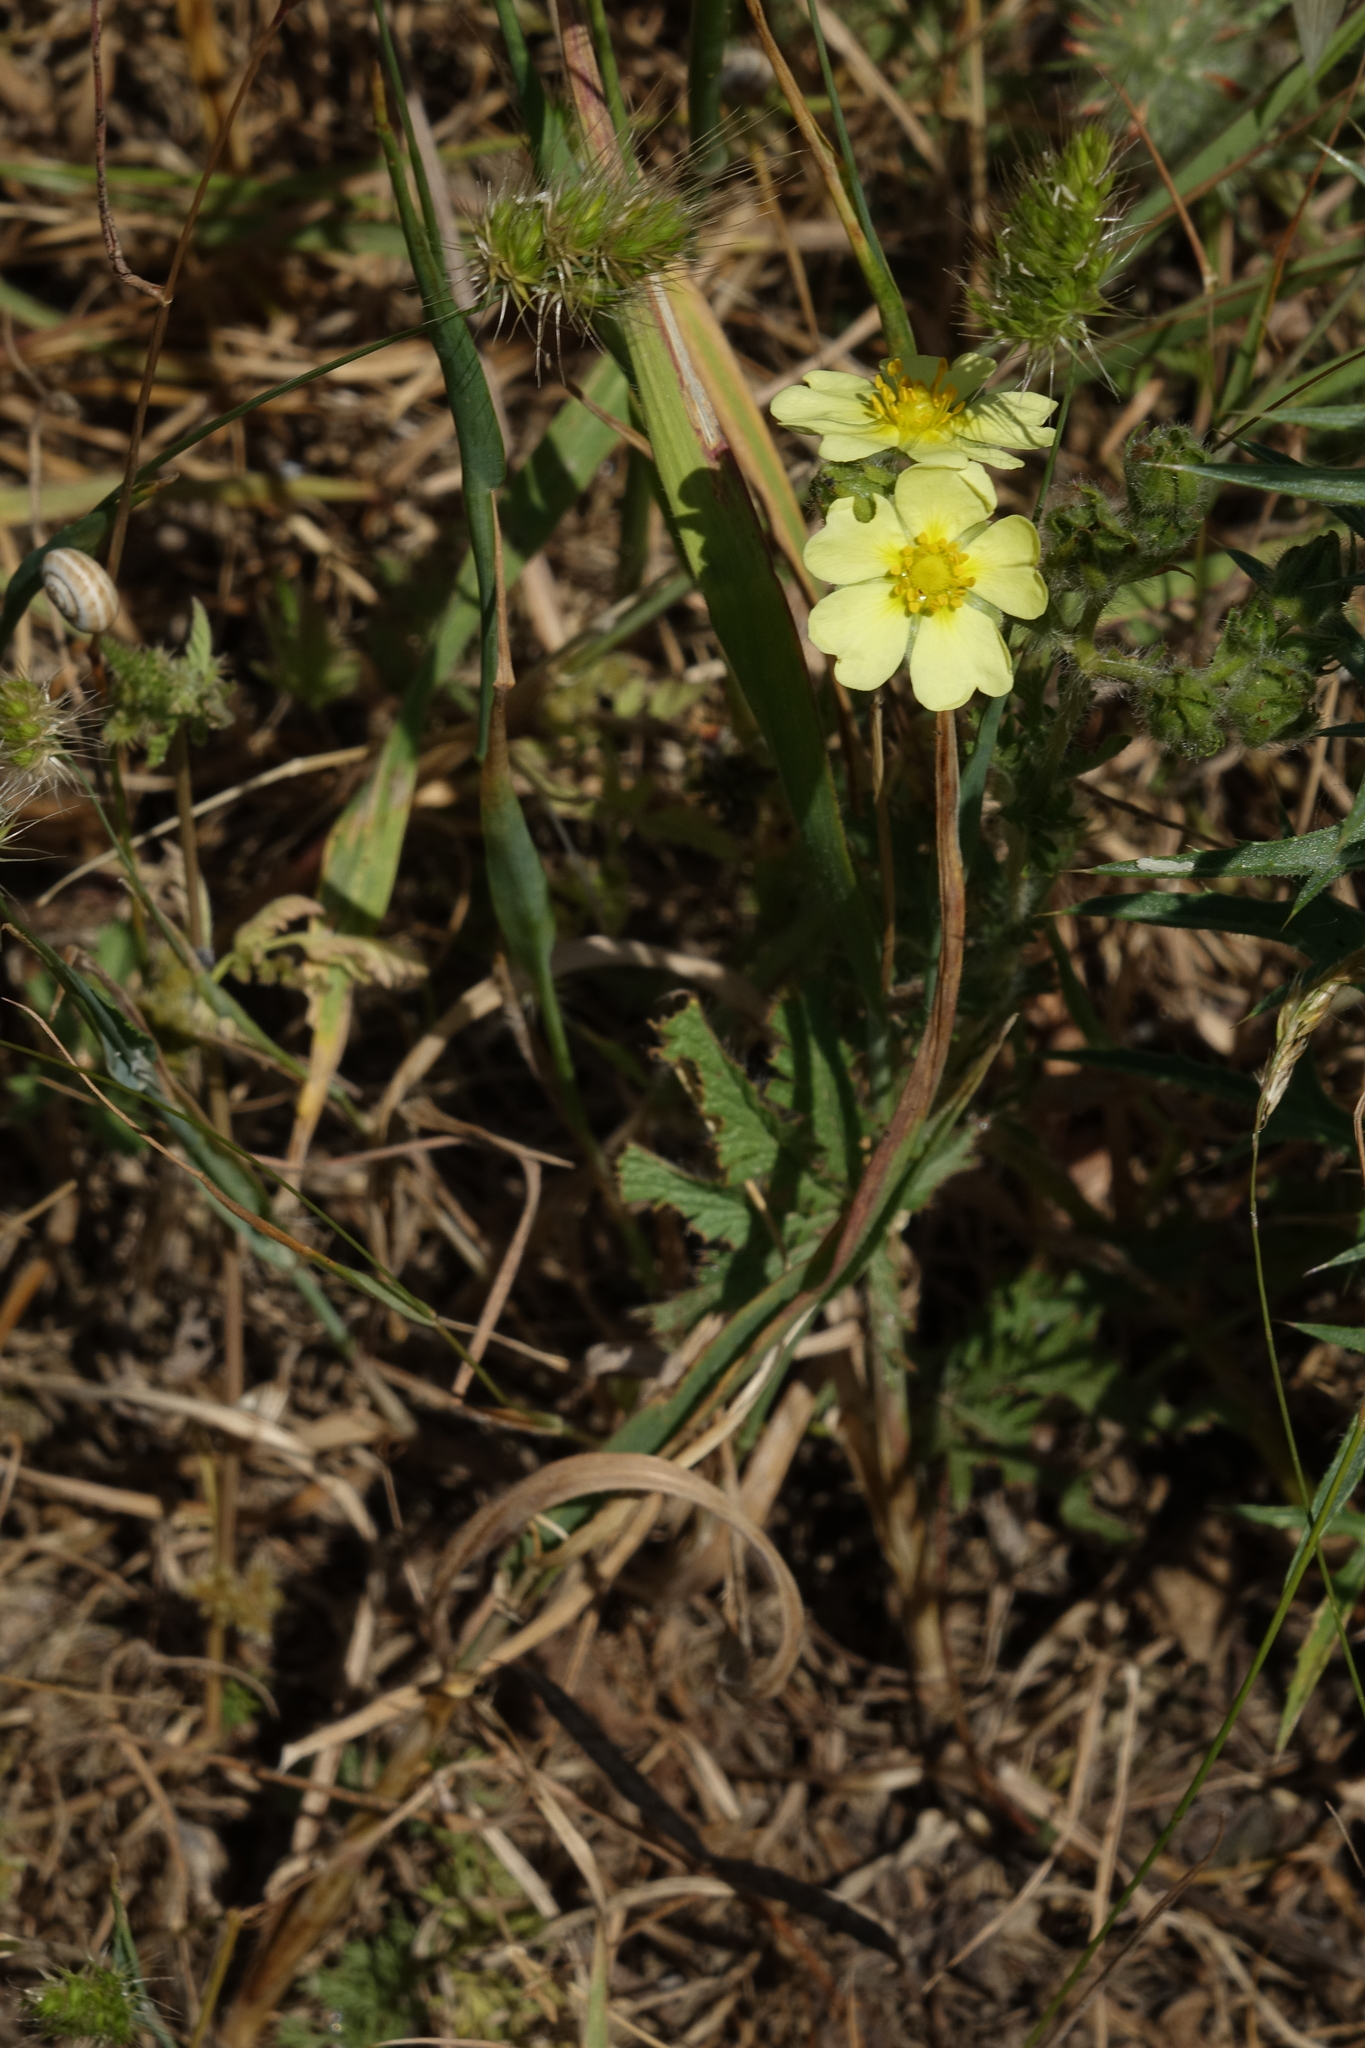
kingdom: Plantae
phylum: Tracheophyta
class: Magnoliopsida
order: Rosales
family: Rosaceae
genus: Potentilla
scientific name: Potentilla recta
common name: Sulphur cinquefoil
